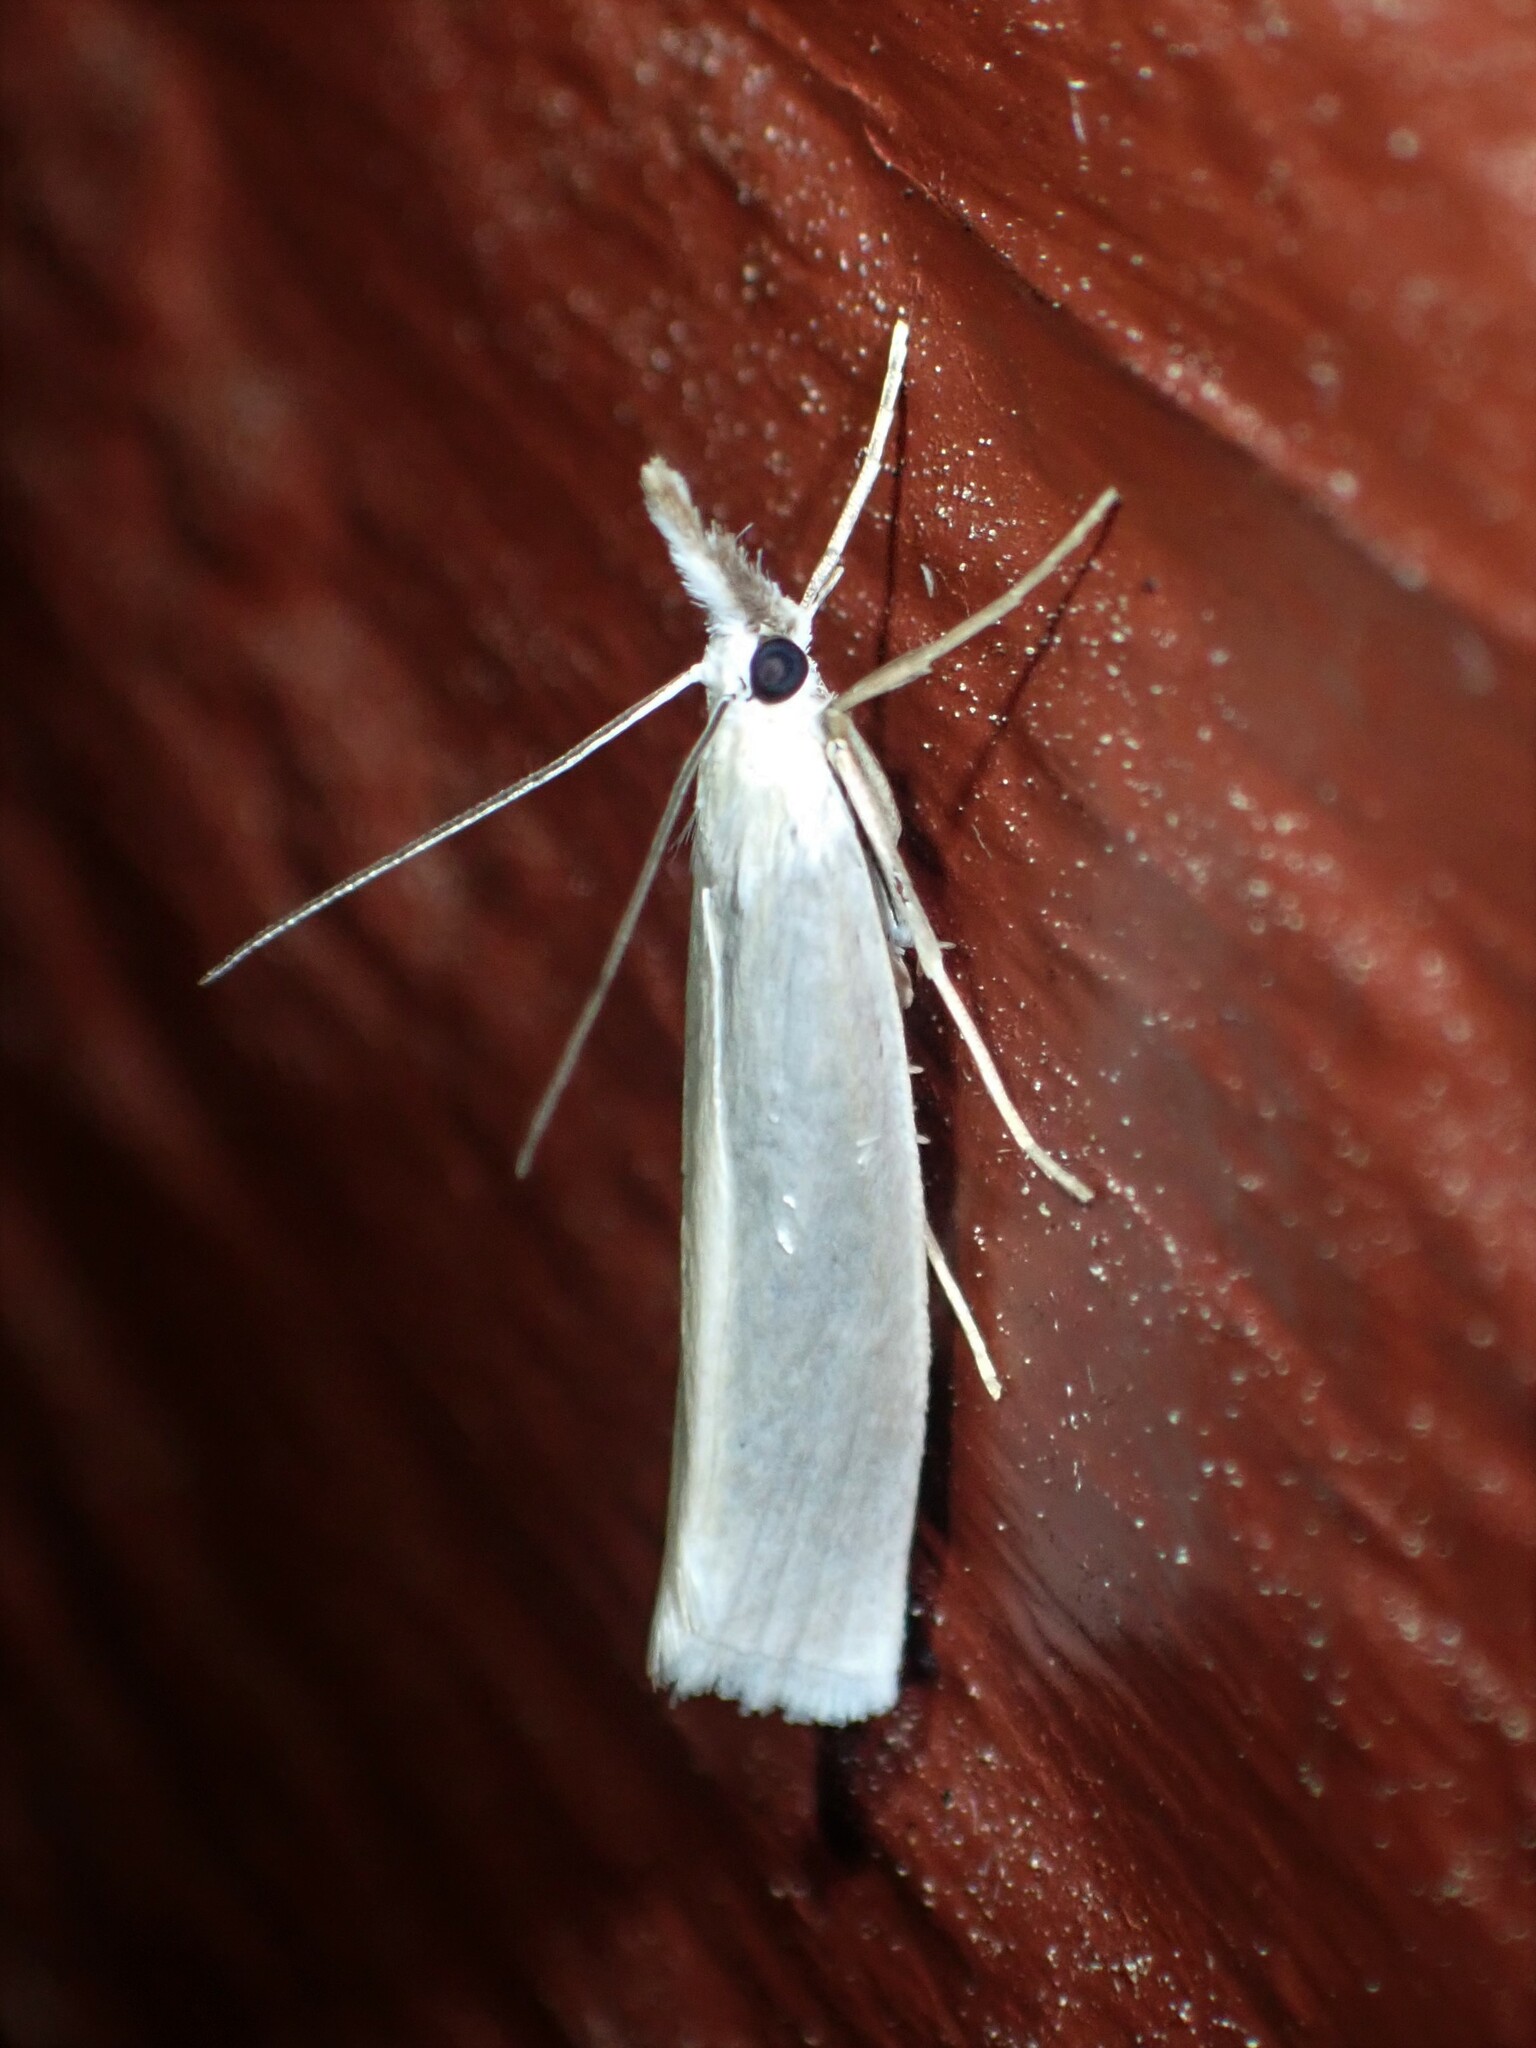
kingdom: Animalia
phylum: Arthropoda
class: Insecta
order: Lepidoptera
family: Crambidae
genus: Crambus
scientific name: Crambus perlellus
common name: Yellow satin veneer
